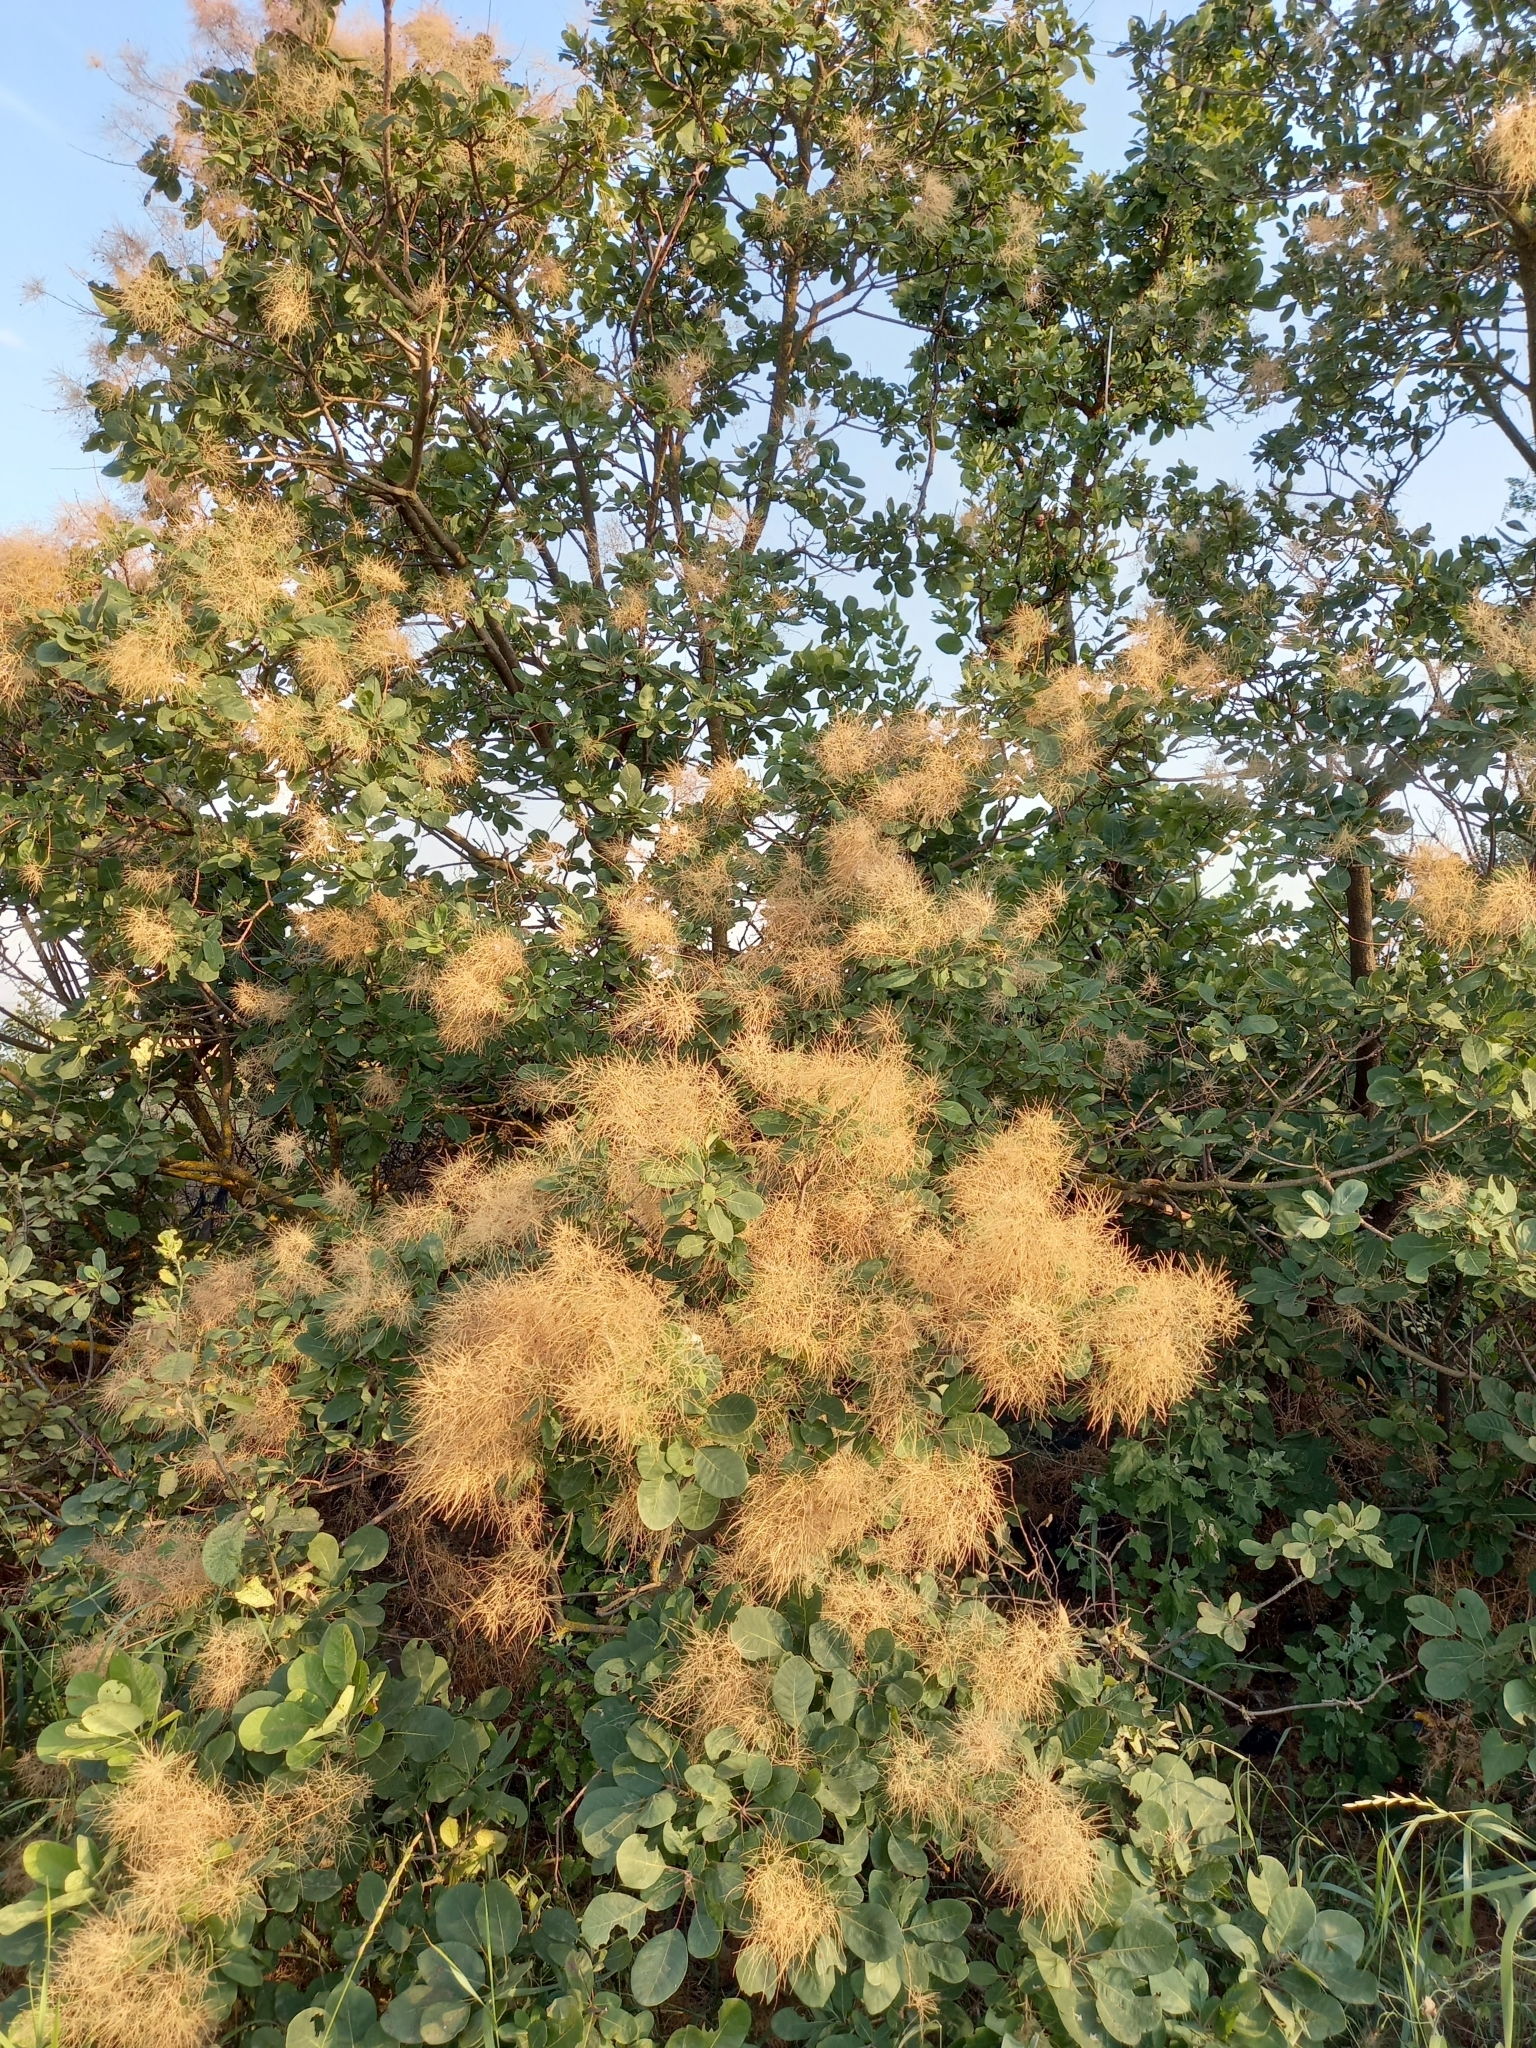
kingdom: Plantae
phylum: Tracheophyta
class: Magnoliopsida
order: Sapindales
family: Anacardiaceae
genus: Cotinus
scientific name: Cotinus coggygria
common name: Smoke-tree
